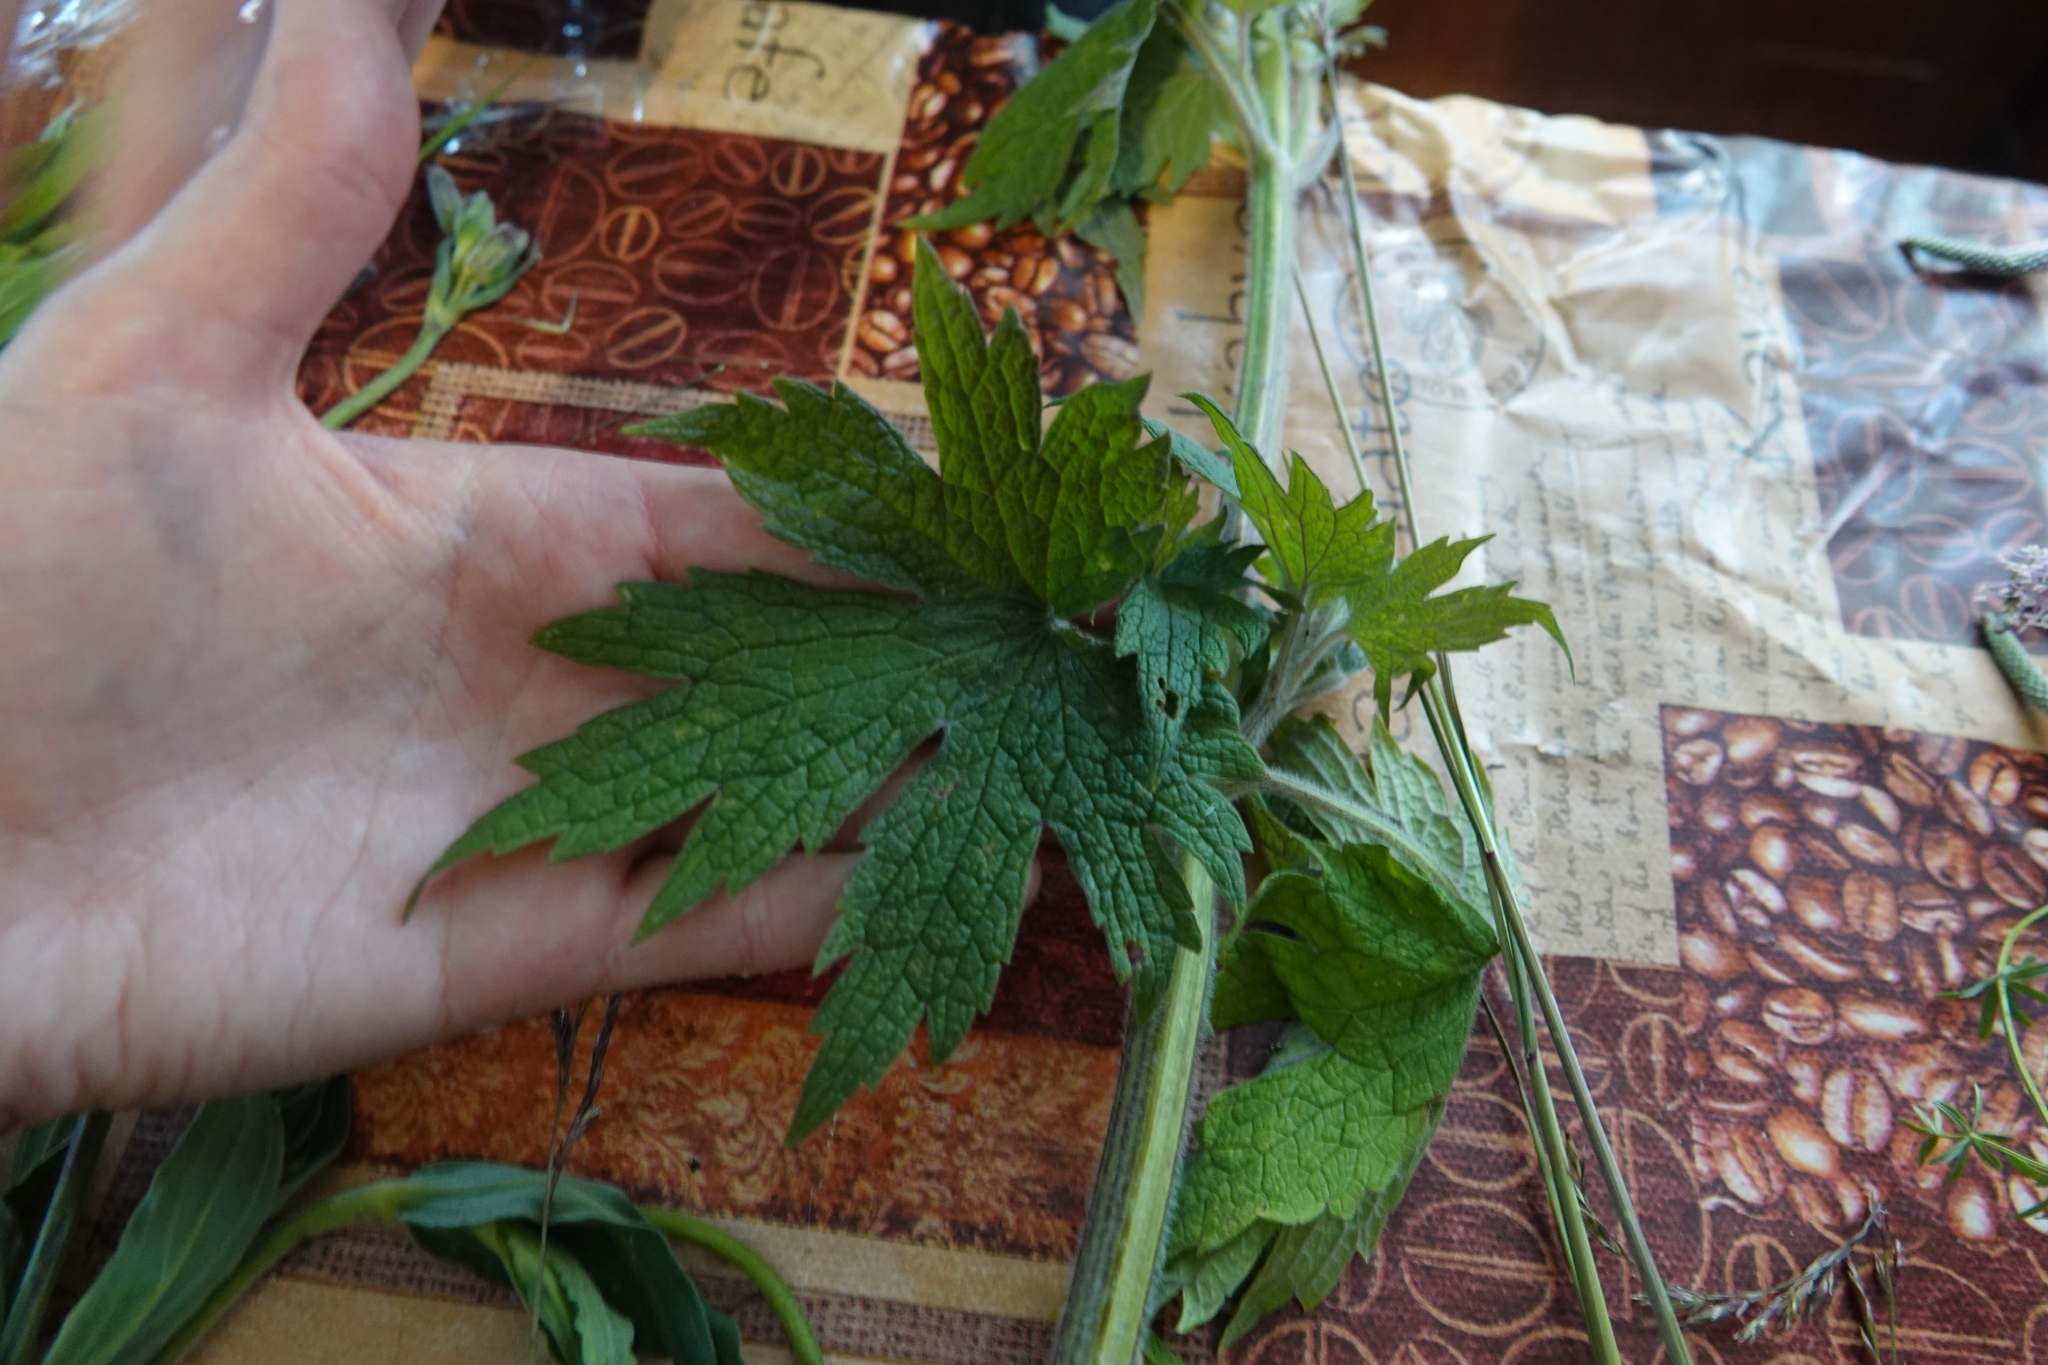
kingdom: Plantae
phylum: Tracheophyta
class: Magnoliopsida
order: Lamiales
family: Lamiaceae
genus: Leonurus
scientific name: Leonurus quinquelobatus
